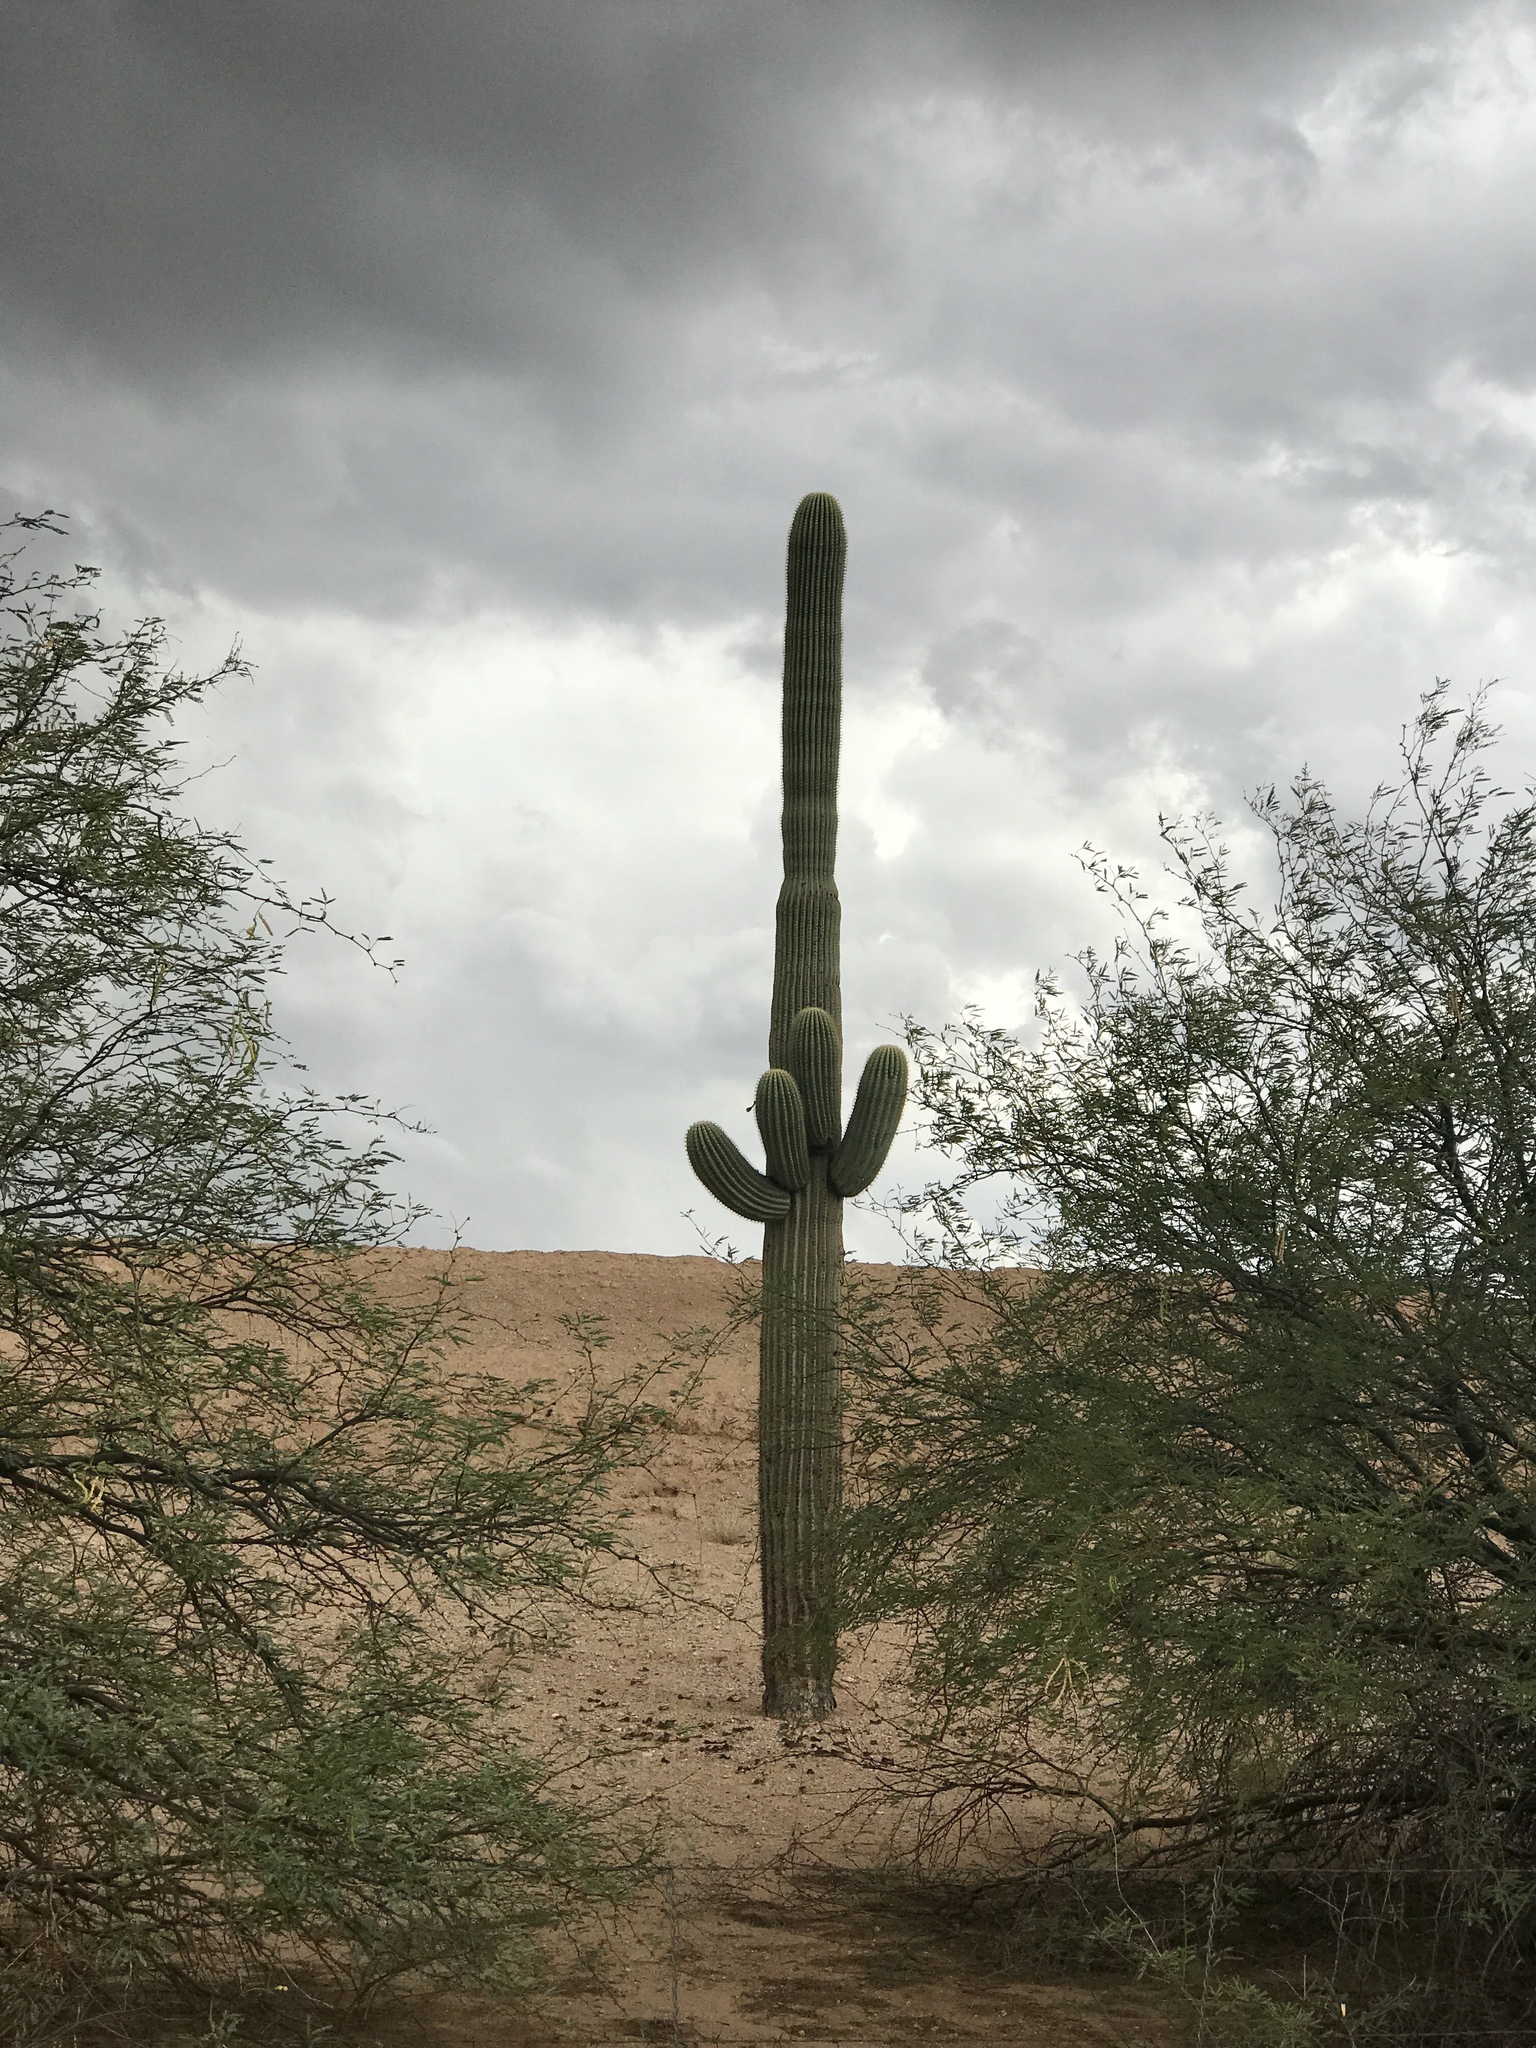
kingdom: Plantae
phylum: Tracheophyta
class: Magnoliopsida
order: Caryophyllales
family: Cactaceae
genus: Carnegiea
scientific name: Carnegiea gigantea
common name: Saguaro
